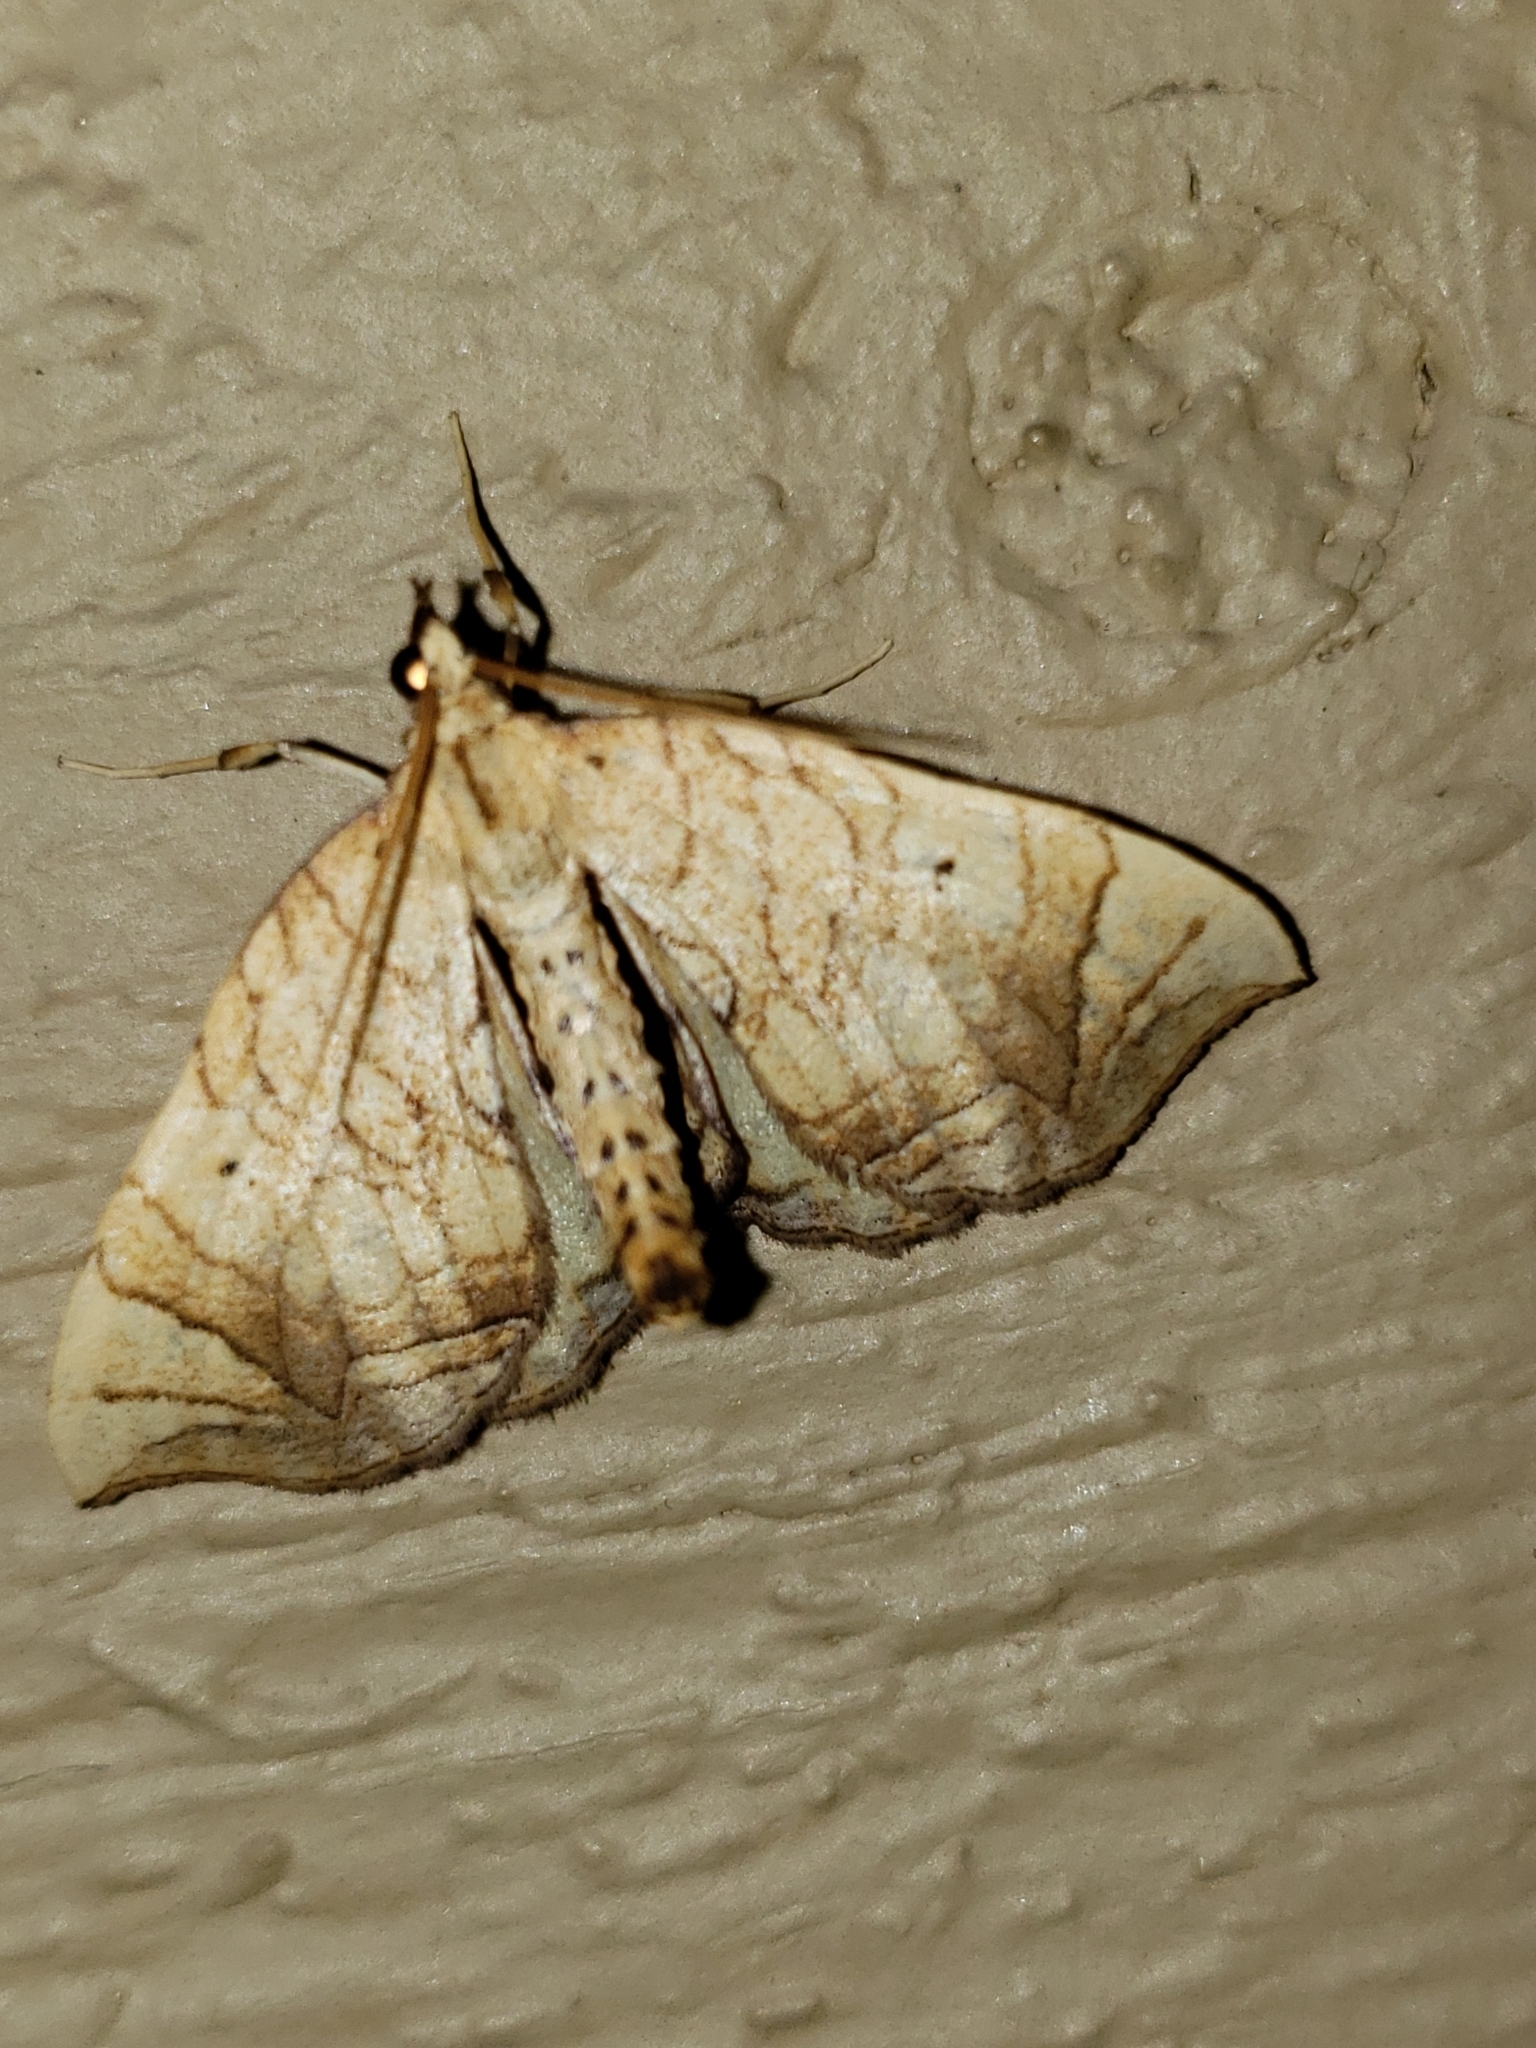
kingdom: Animalia
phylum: Arthropoda
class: Insecta
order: Lepidoptera
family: Geometridae
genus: Eulithis
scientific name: Eulithis gracilineata
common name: Greater grapevine looper moth
